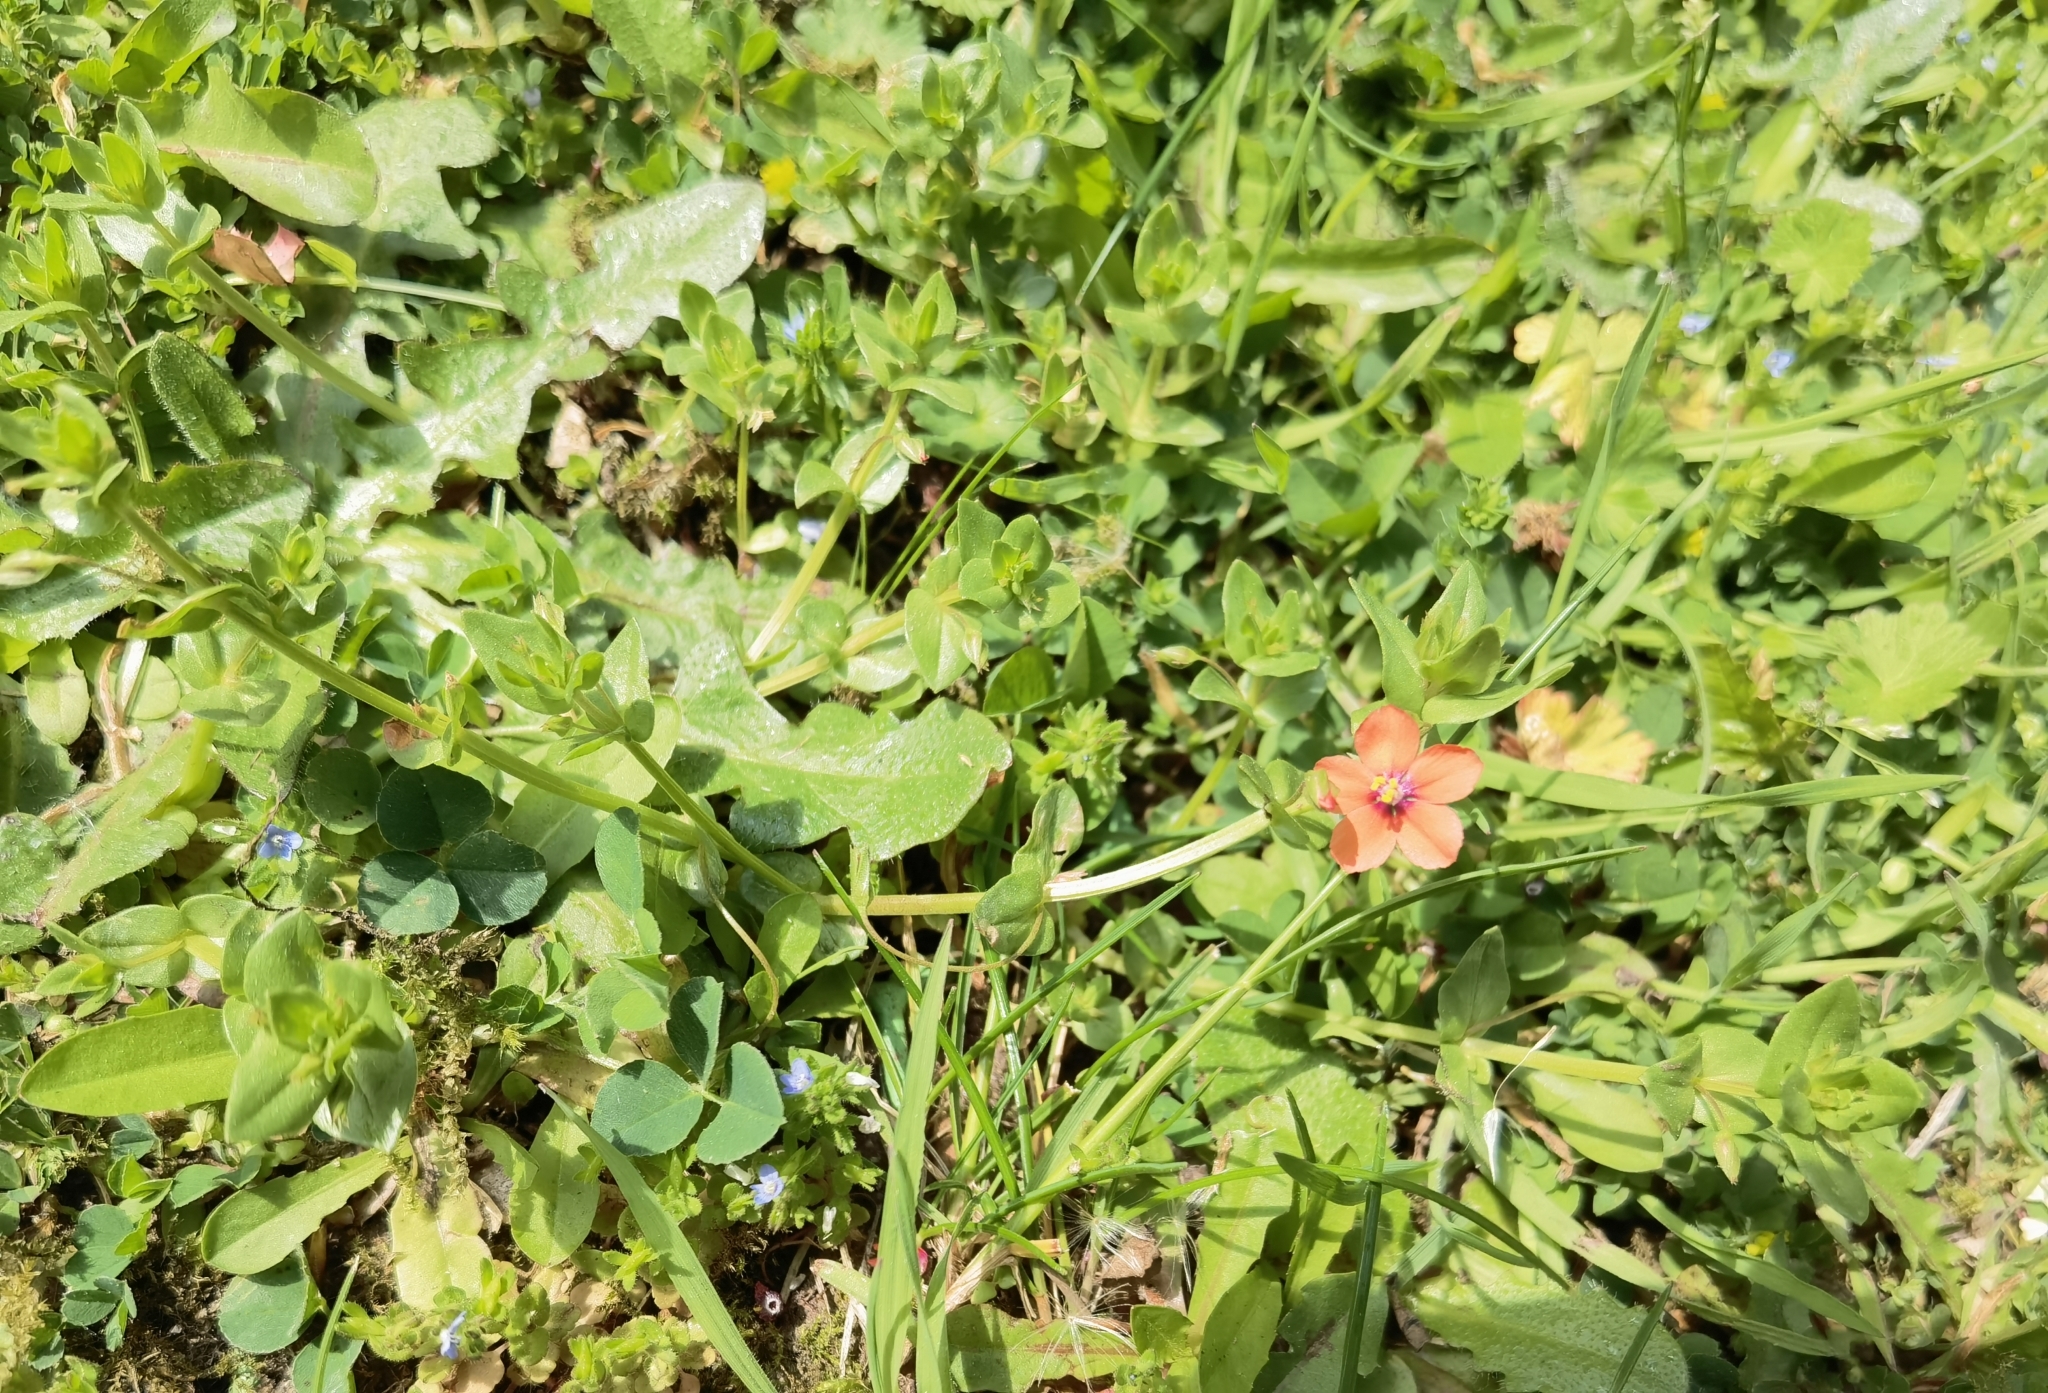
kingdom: Plantae
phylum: Tracheophyta
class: Magnoliopsida
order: Ericales
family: Primulaceae
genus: Lysimachia
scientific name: Lysimachia arvensis
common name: Scarlet pimpernel
